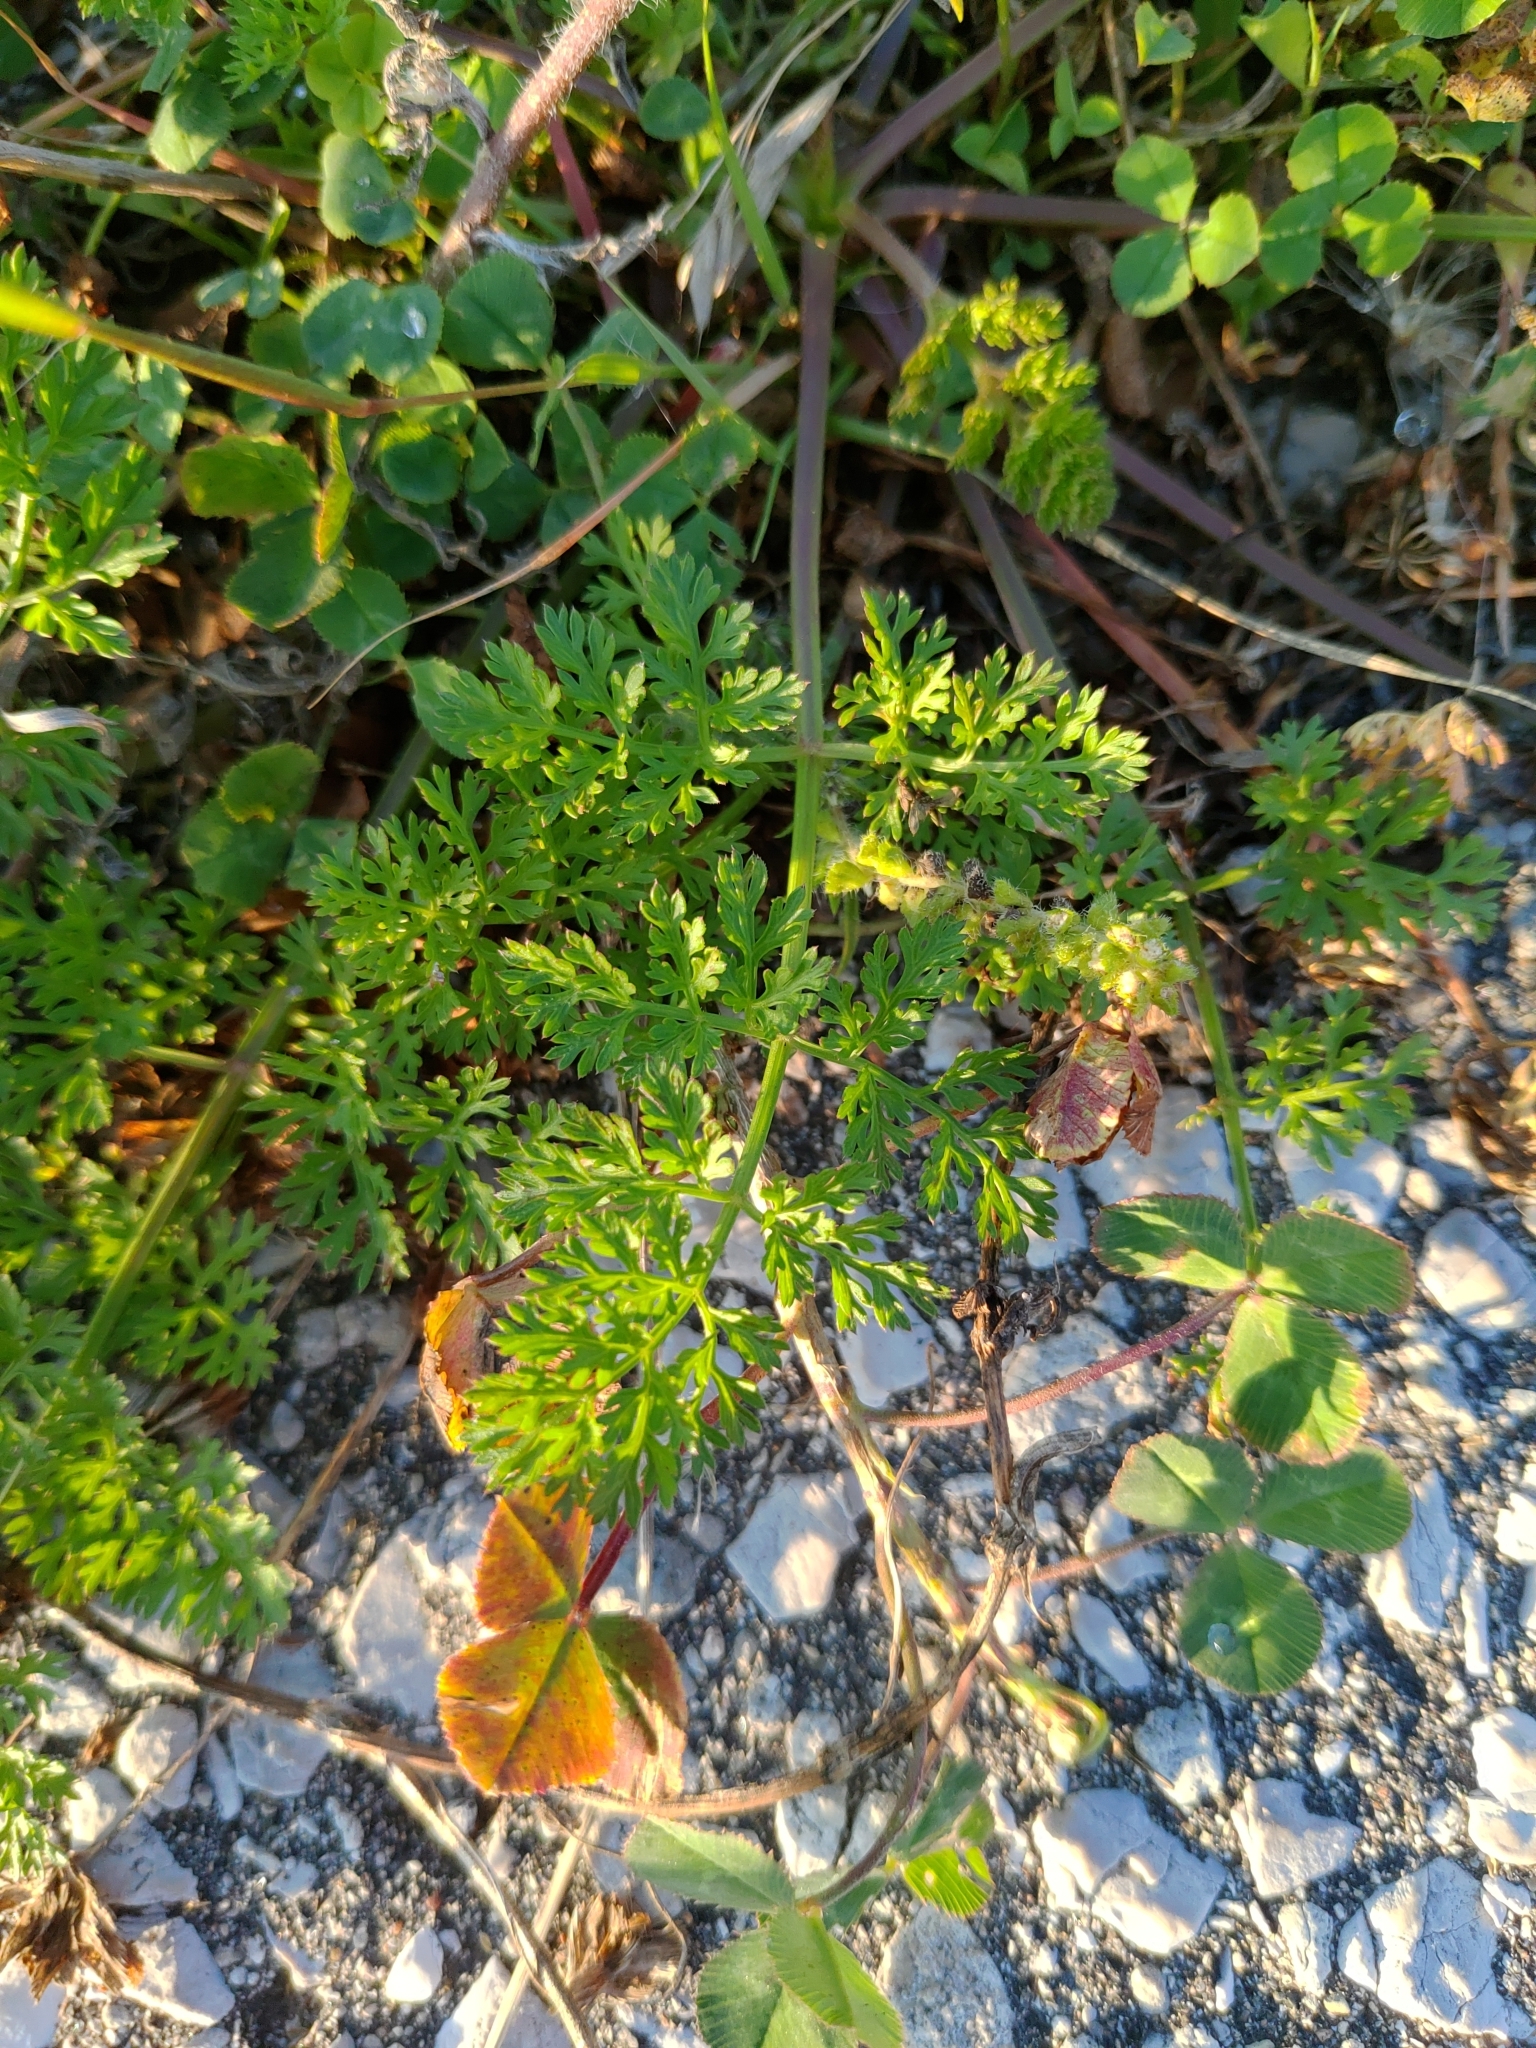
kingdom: Plantae
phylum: Tracheophyta
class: Magnoliopsida
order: Apiales
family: Apiaceae
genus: Daucus
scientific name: Daucus carota
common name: Wild carrot
